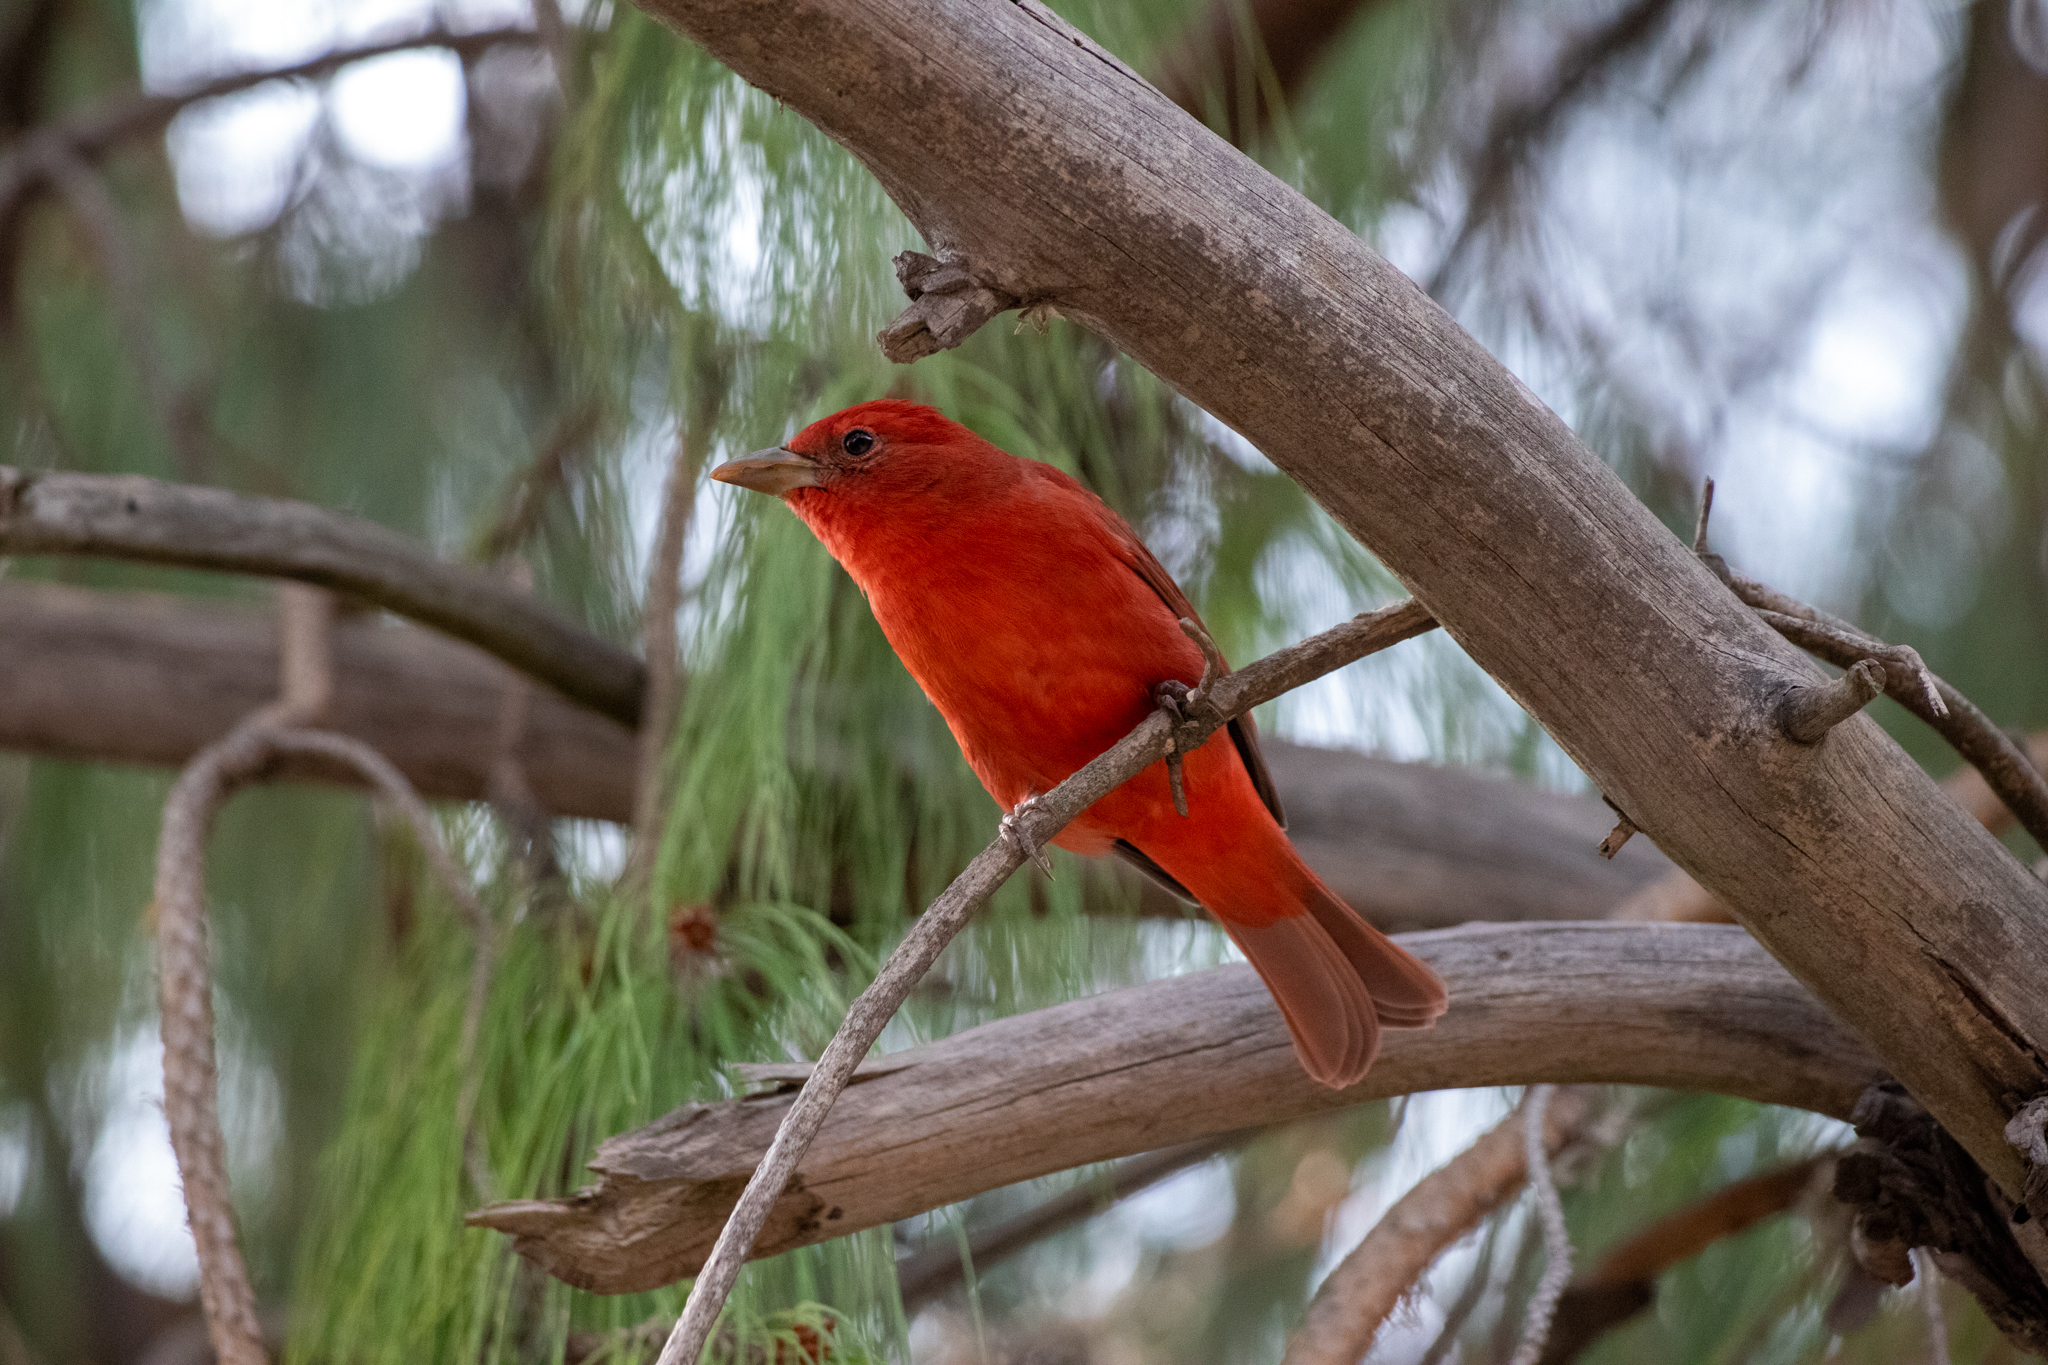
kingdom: Animalia
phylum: Chordata
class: Aves
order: Passeriformes
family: Cardinalidae
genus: Piranga
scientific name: Piranga rubra
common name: Summer tanager
